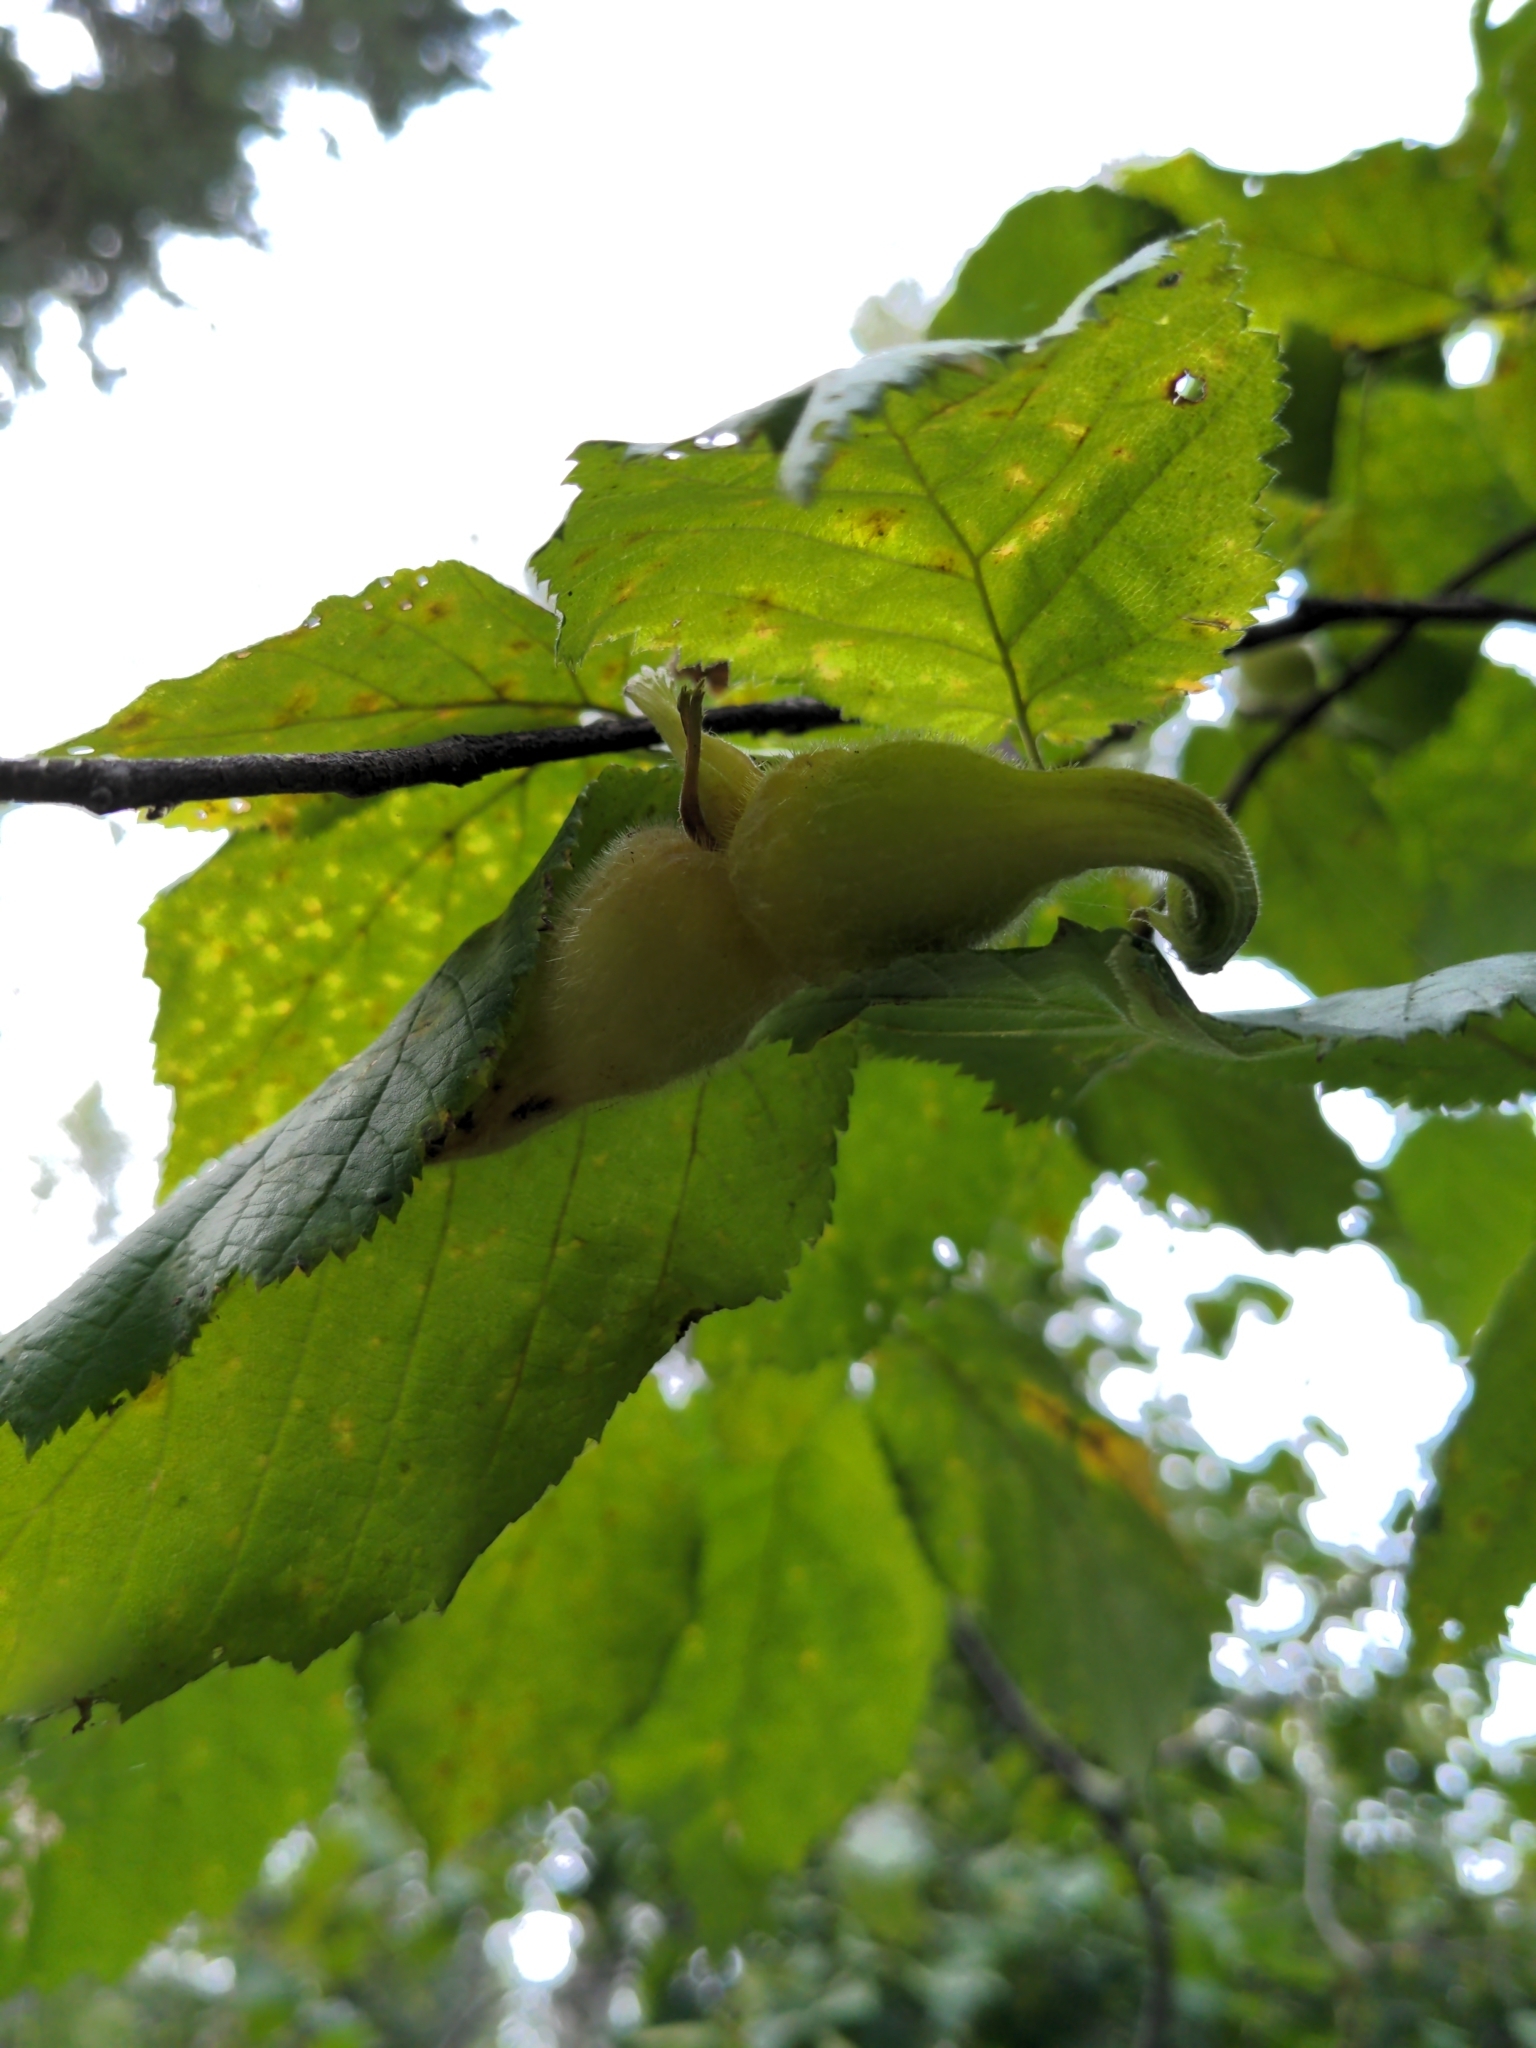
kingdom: Plantae
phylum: Tracheophyta
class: Magnoliopsida
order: Fagales
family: Betulaceae
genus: Corylus
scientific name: Corylus cornuta
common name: Beaked hazel
